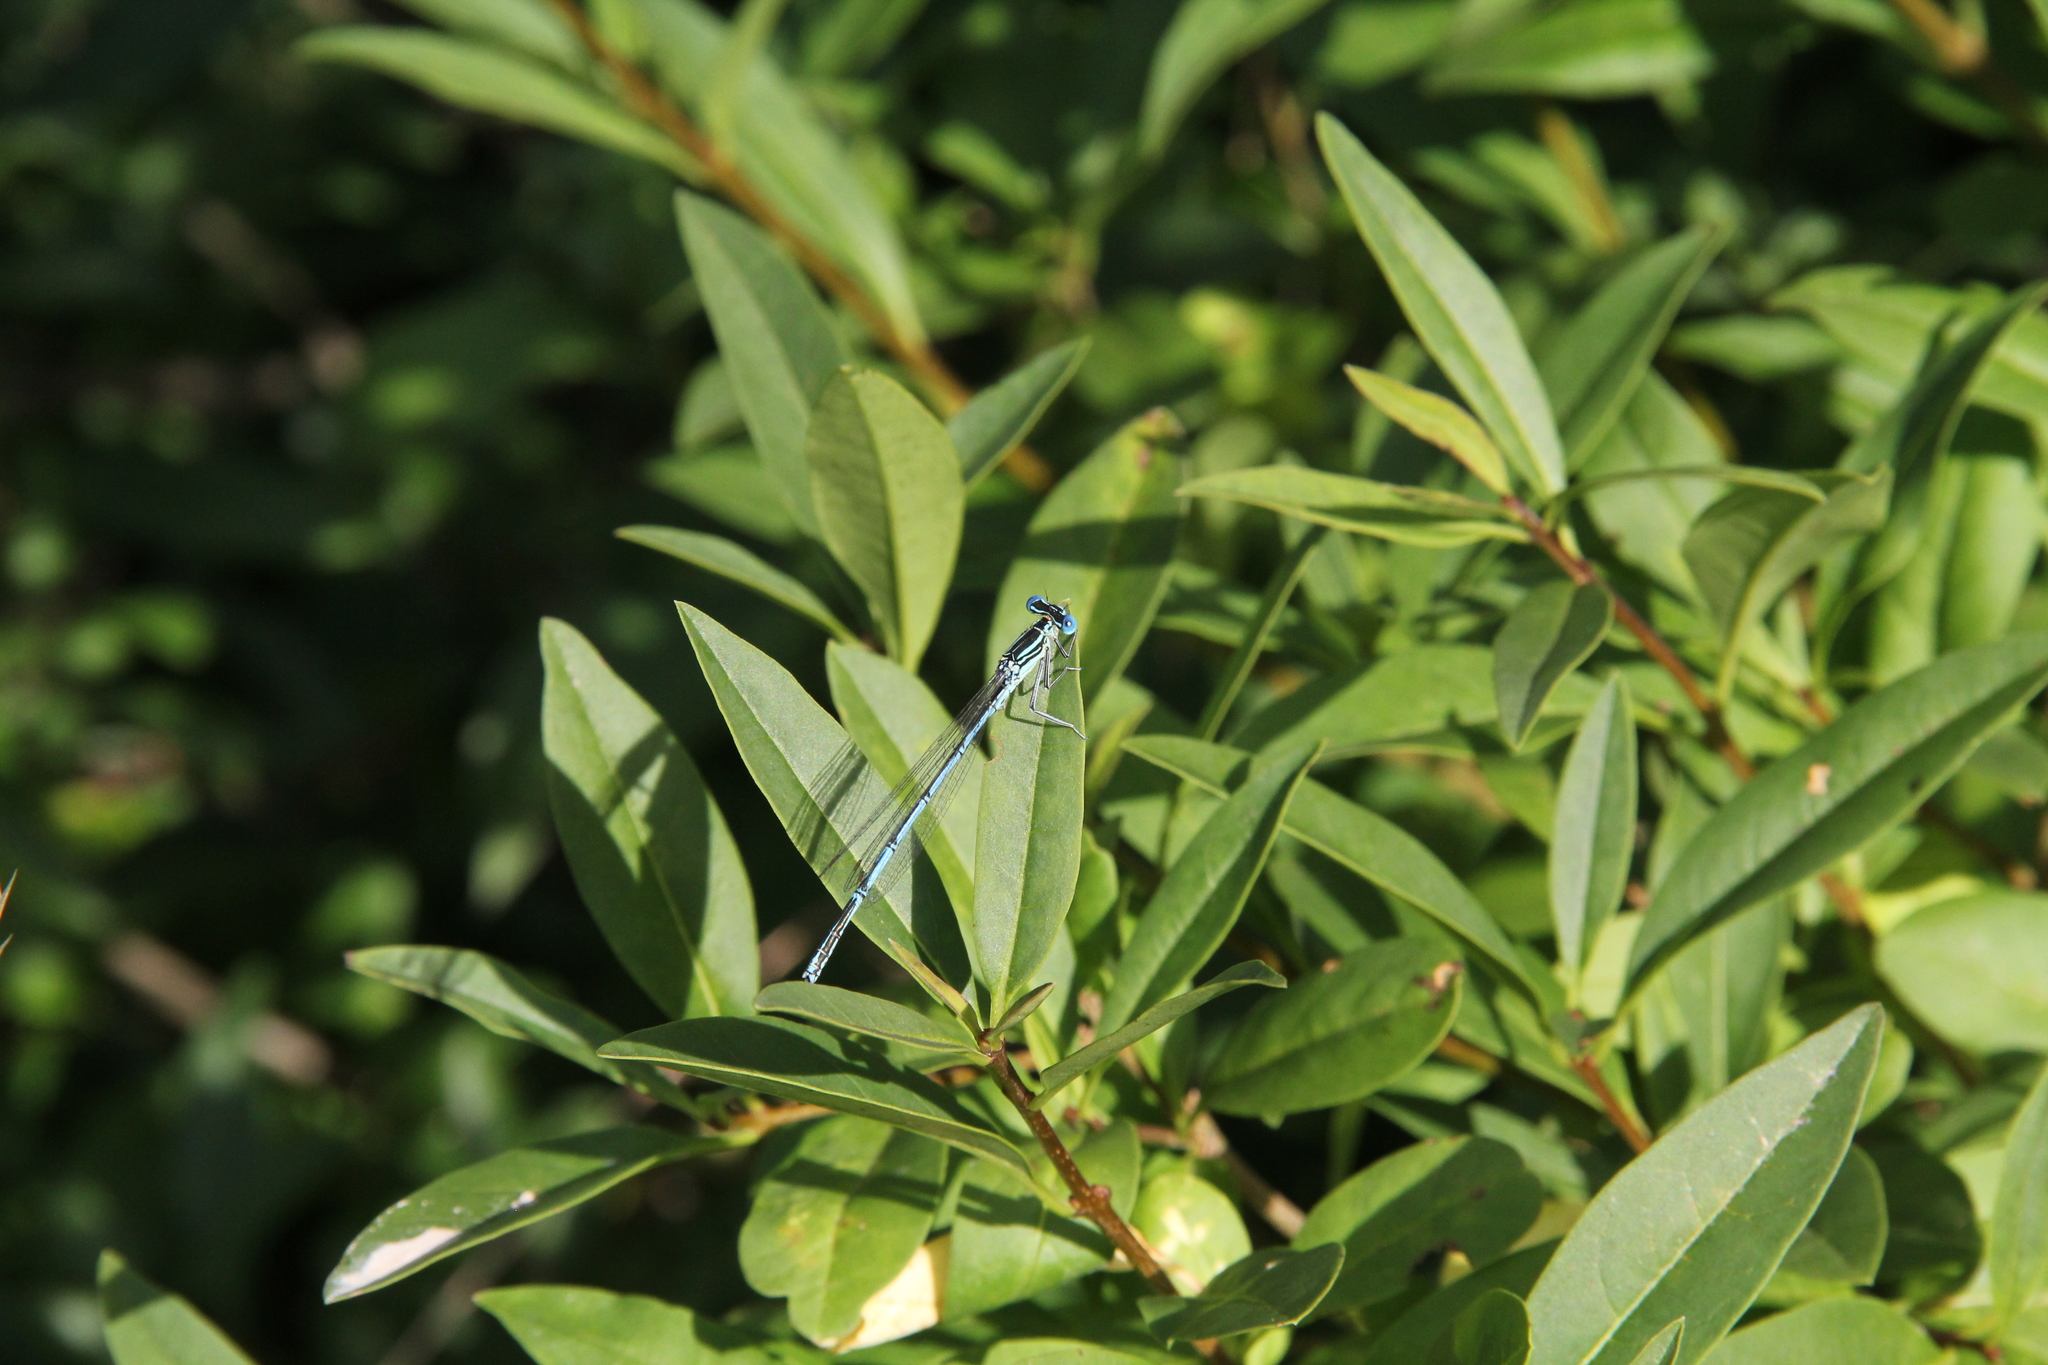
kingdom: Animalia
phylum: Arthropoda
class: Insecta
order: Odonata
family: Platycnemididae
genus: Platycnemis
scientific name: Platycnemis pennipes
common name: White-legged damselfly
